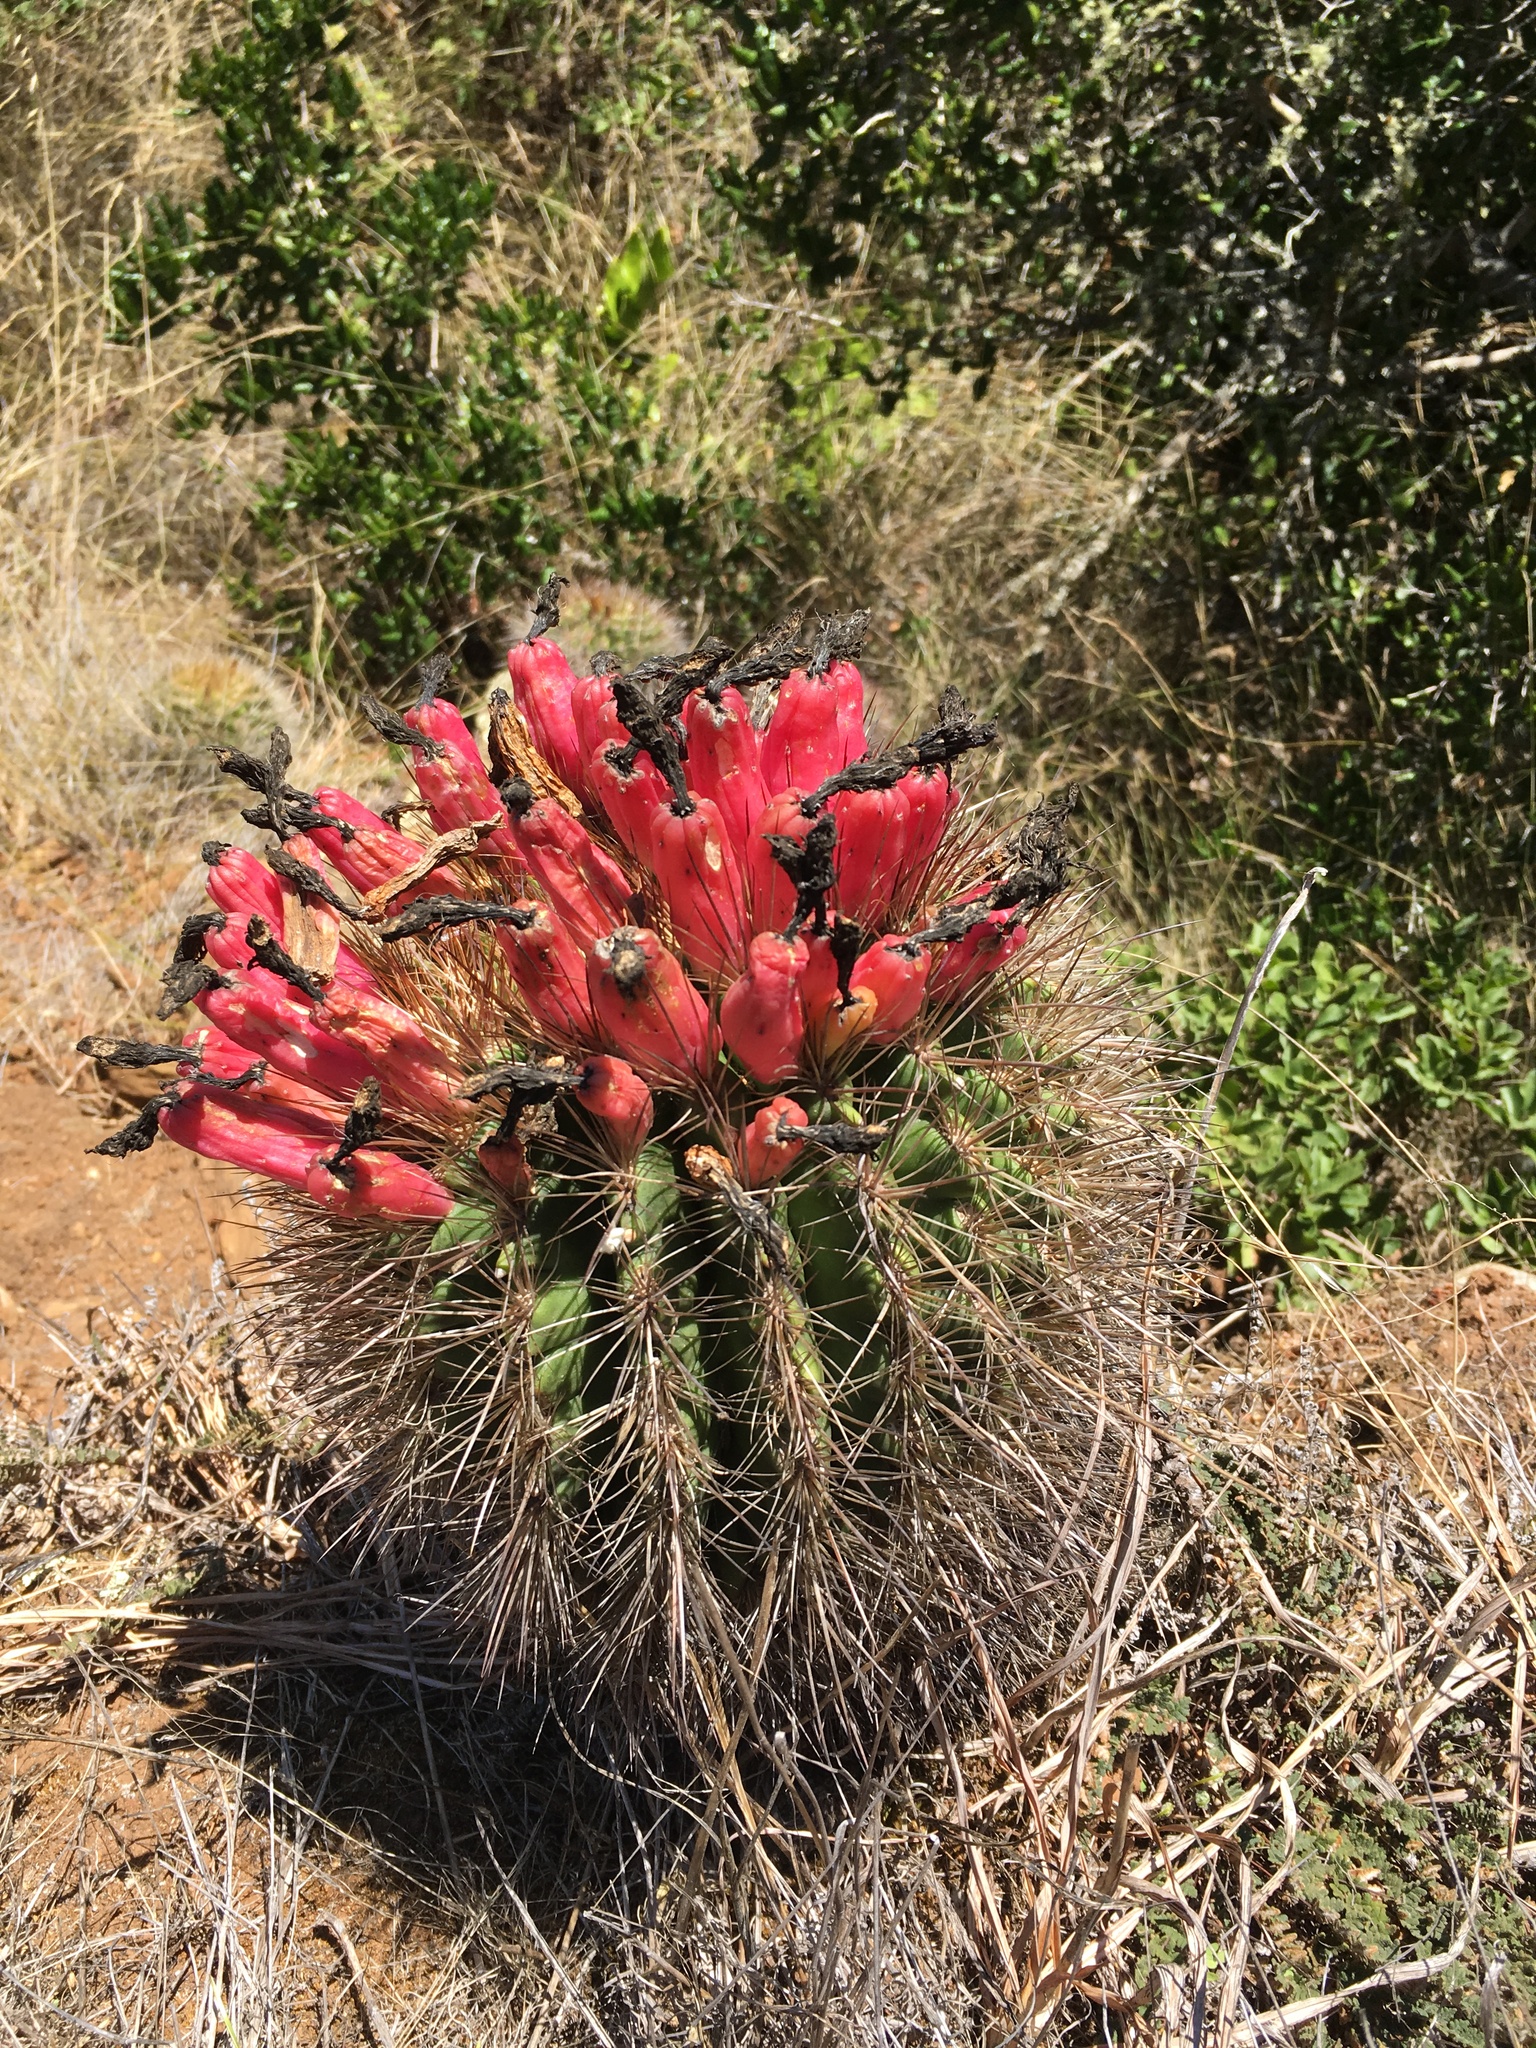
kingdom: Plantae
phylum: Tracheophyta
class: Magnoliopsida
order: Caryophyllales
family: Cactaceae
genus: Eriosyce
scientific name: Eriosyce subgibbosa
